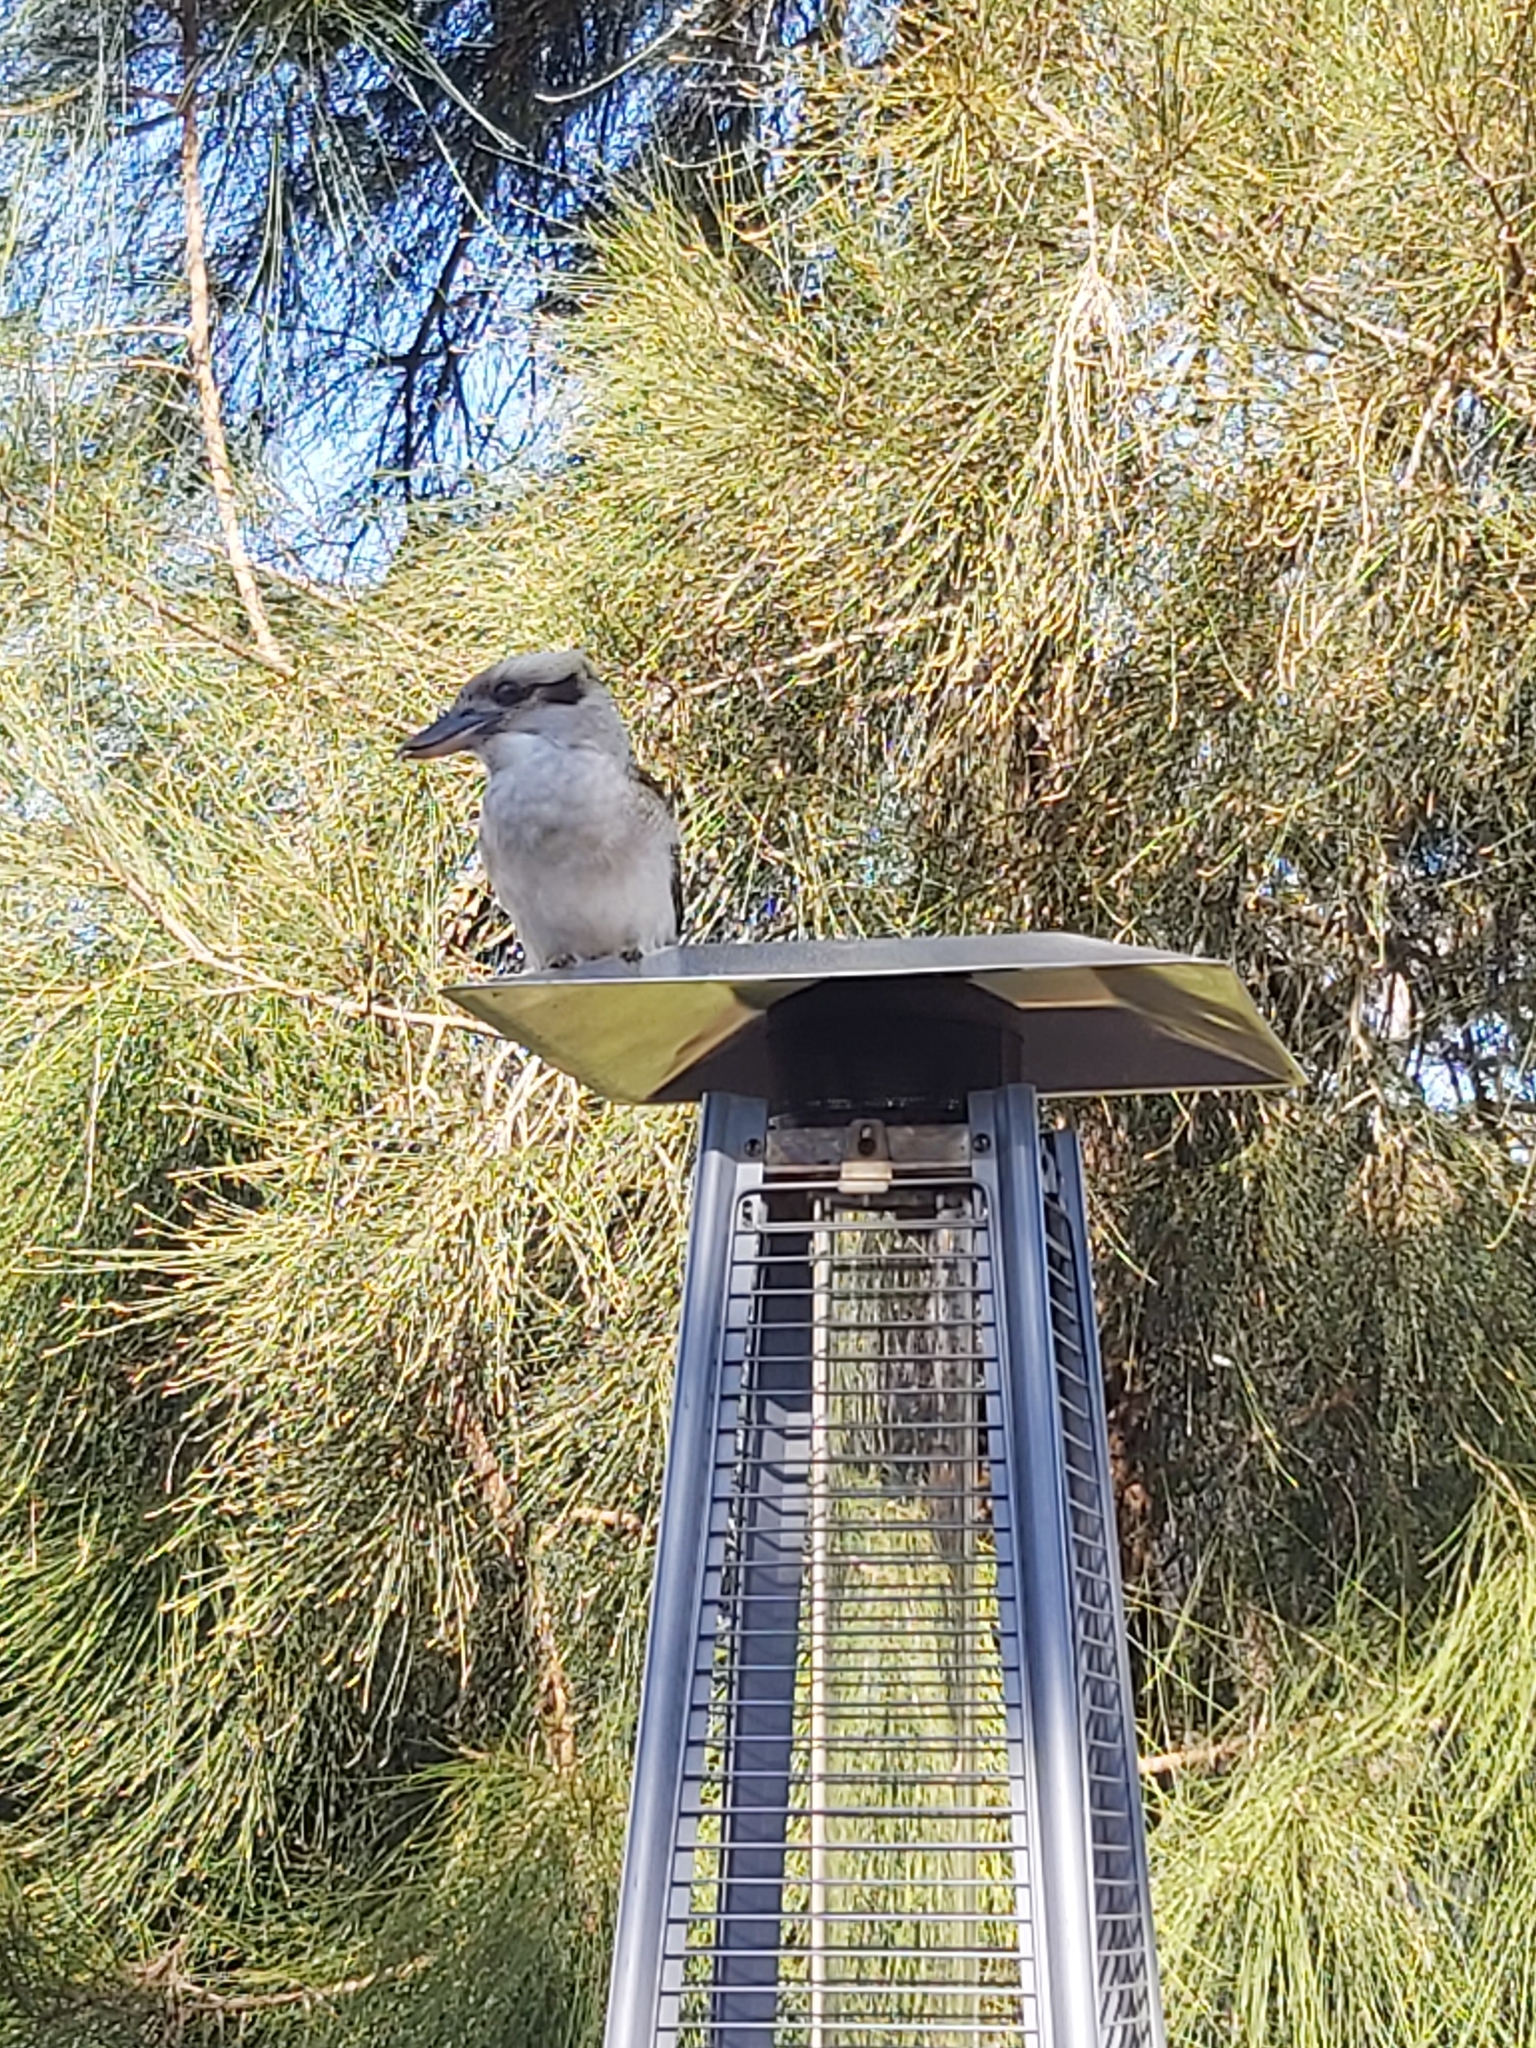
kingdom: Animalia
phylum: Chordata
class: Aves
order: Coraciiformes
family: Alcedinidae
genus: Dacelo
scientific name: Dacelo novaeguineae
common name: Laughing kookaburra
